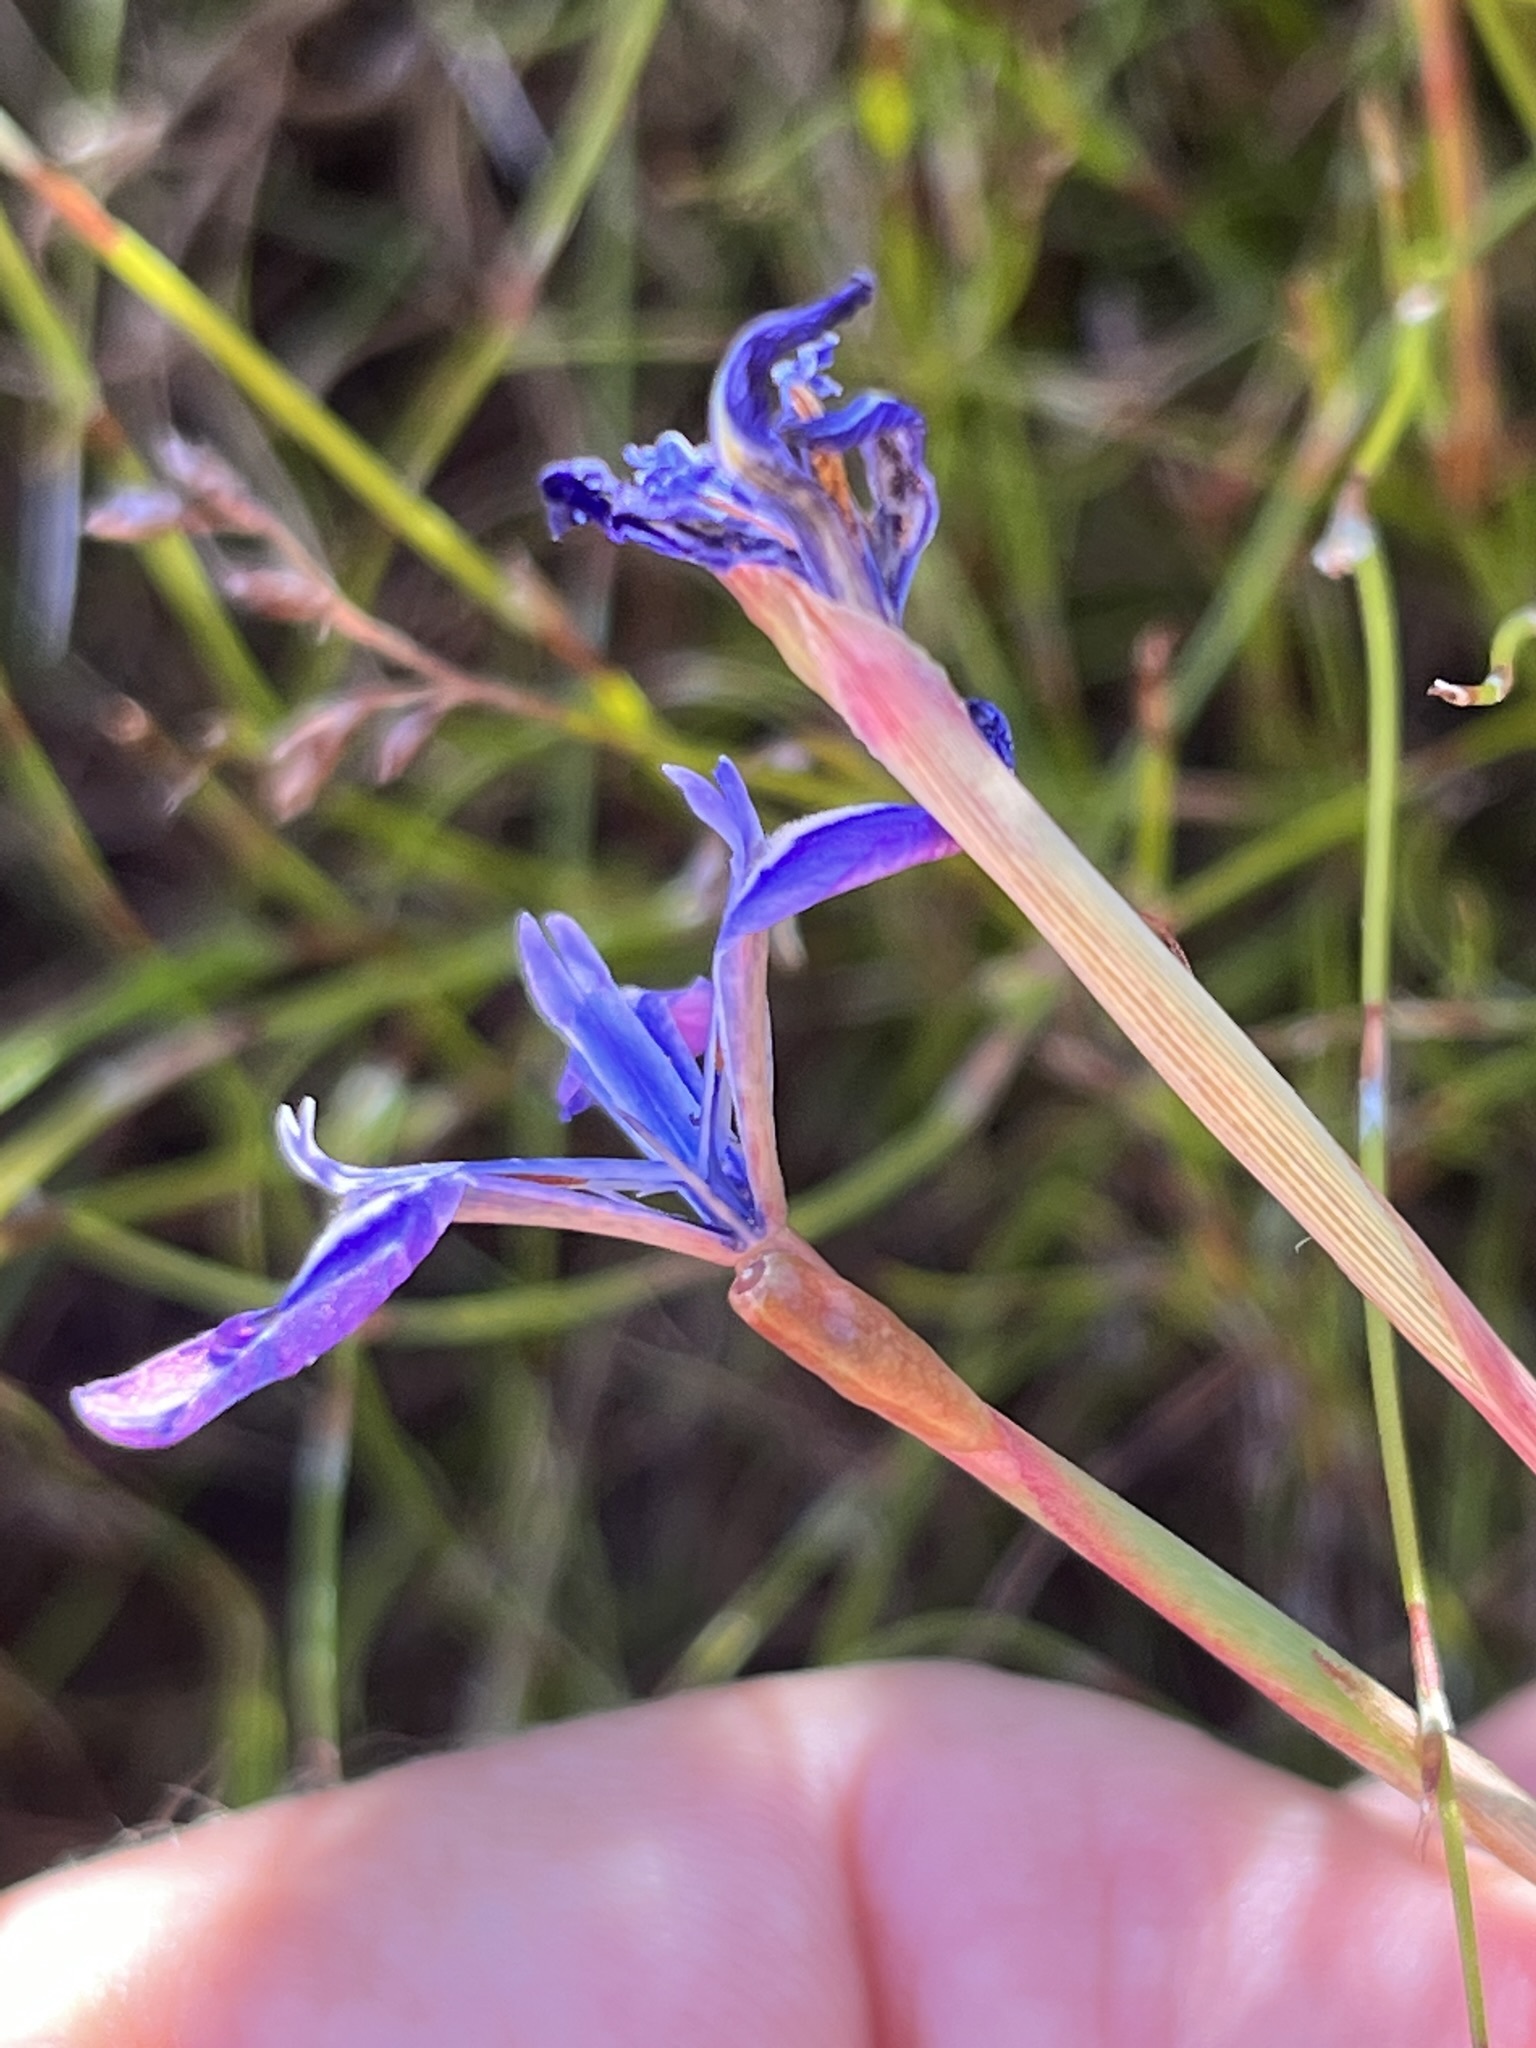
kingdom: Plantae
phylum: Tracheophyta
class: Liliopsida
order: Asparagales
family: Iridaceae
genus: Moraea
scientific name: Moraea tripetala
